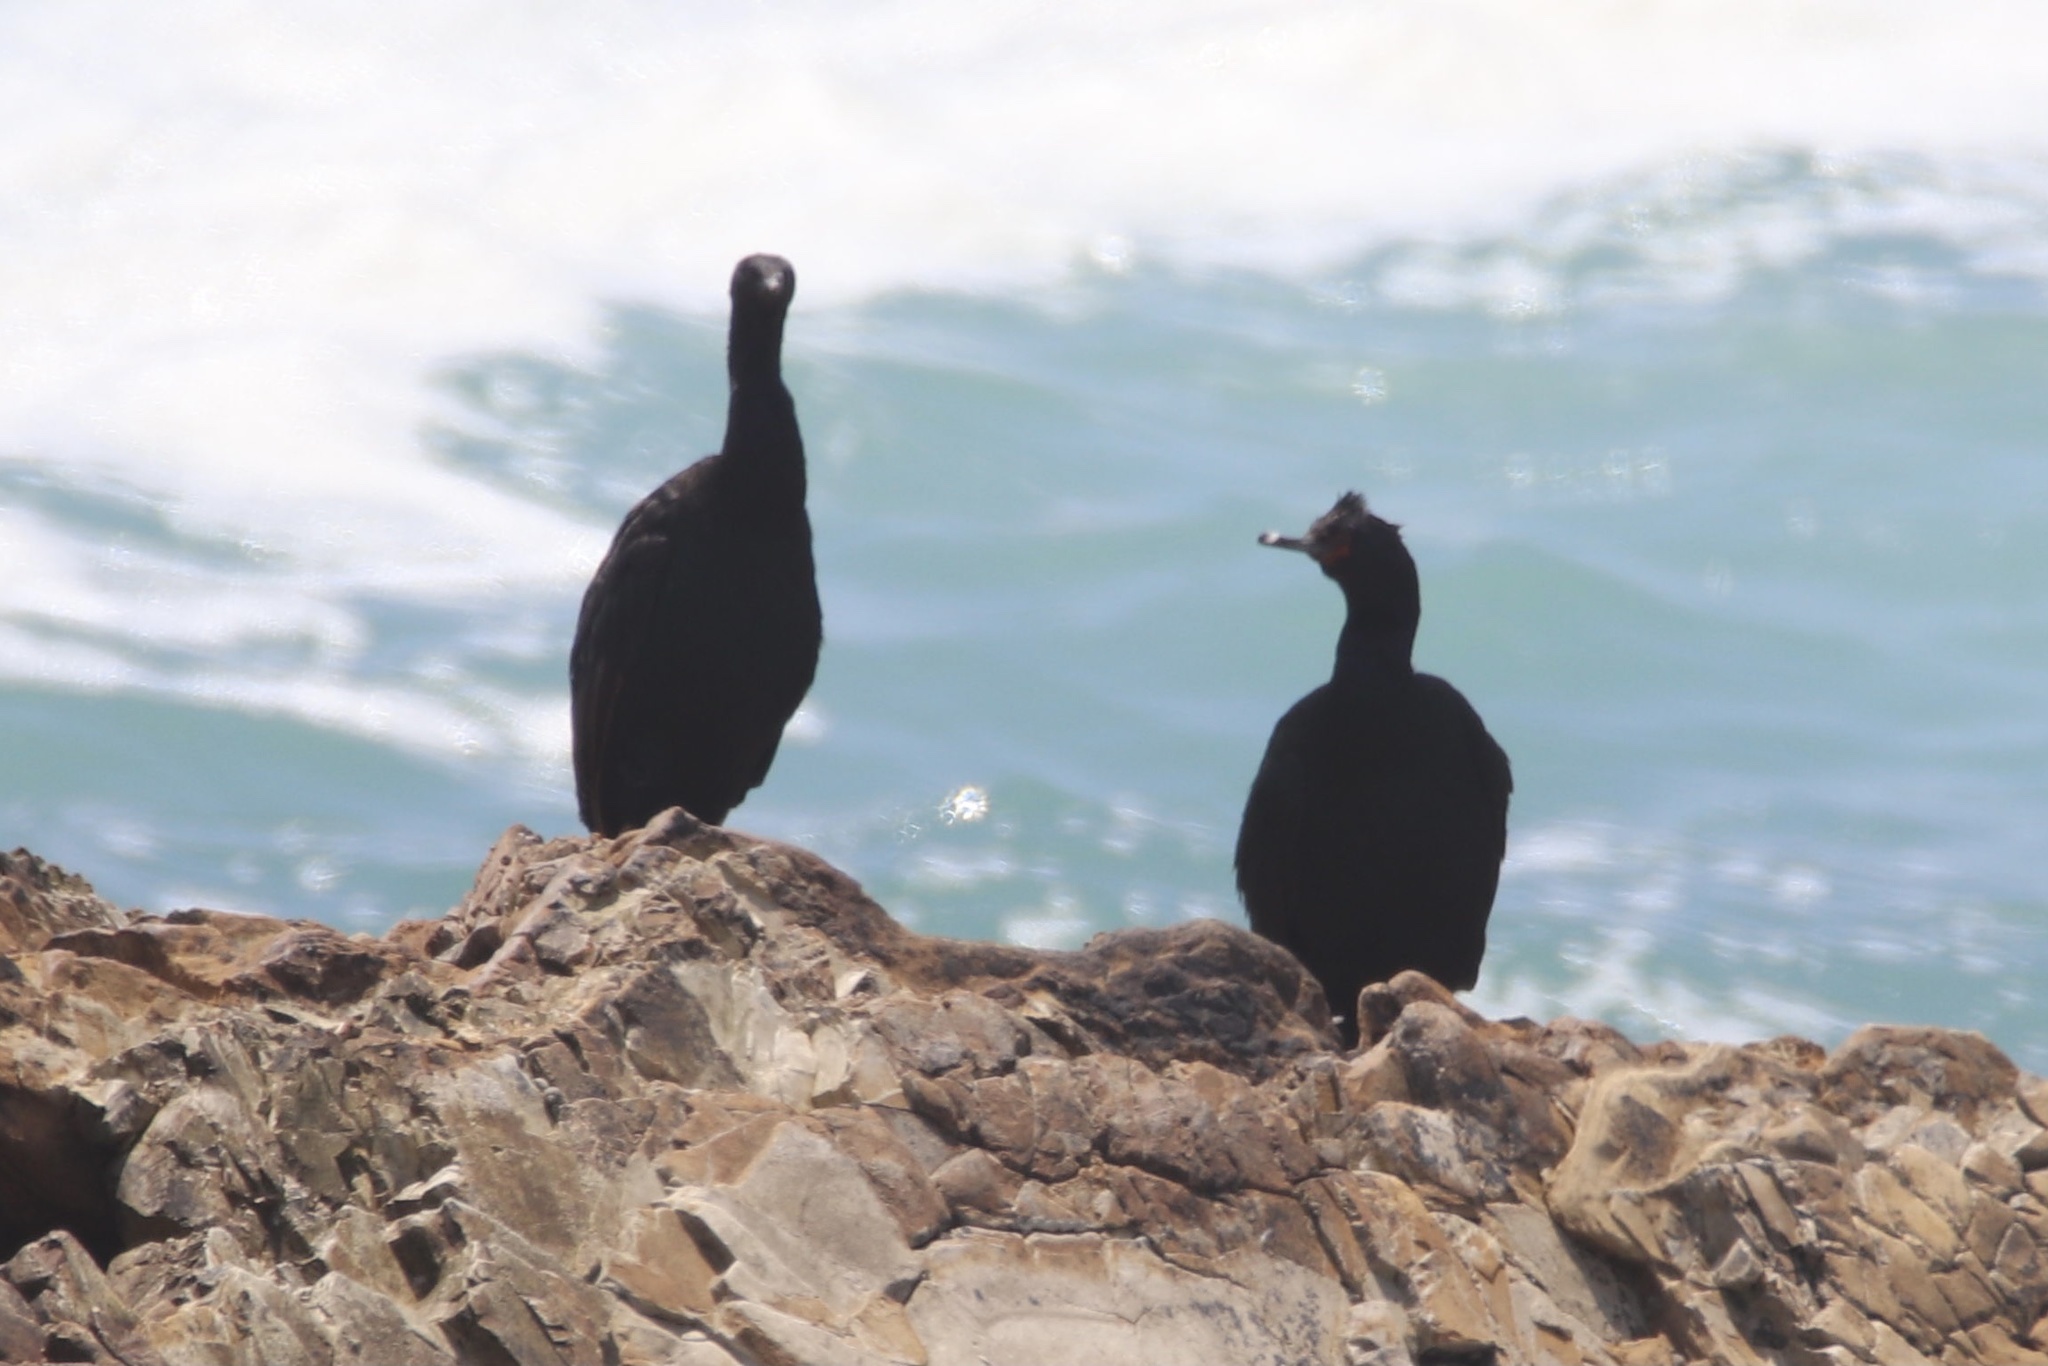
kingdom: Animalia
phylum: Chordata
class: Aves
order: Suliformes
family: Phalacrocoracidae
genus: Phalacrocorax
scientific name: Phalacrocorax pelagicus
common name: Pelagic cormorant
